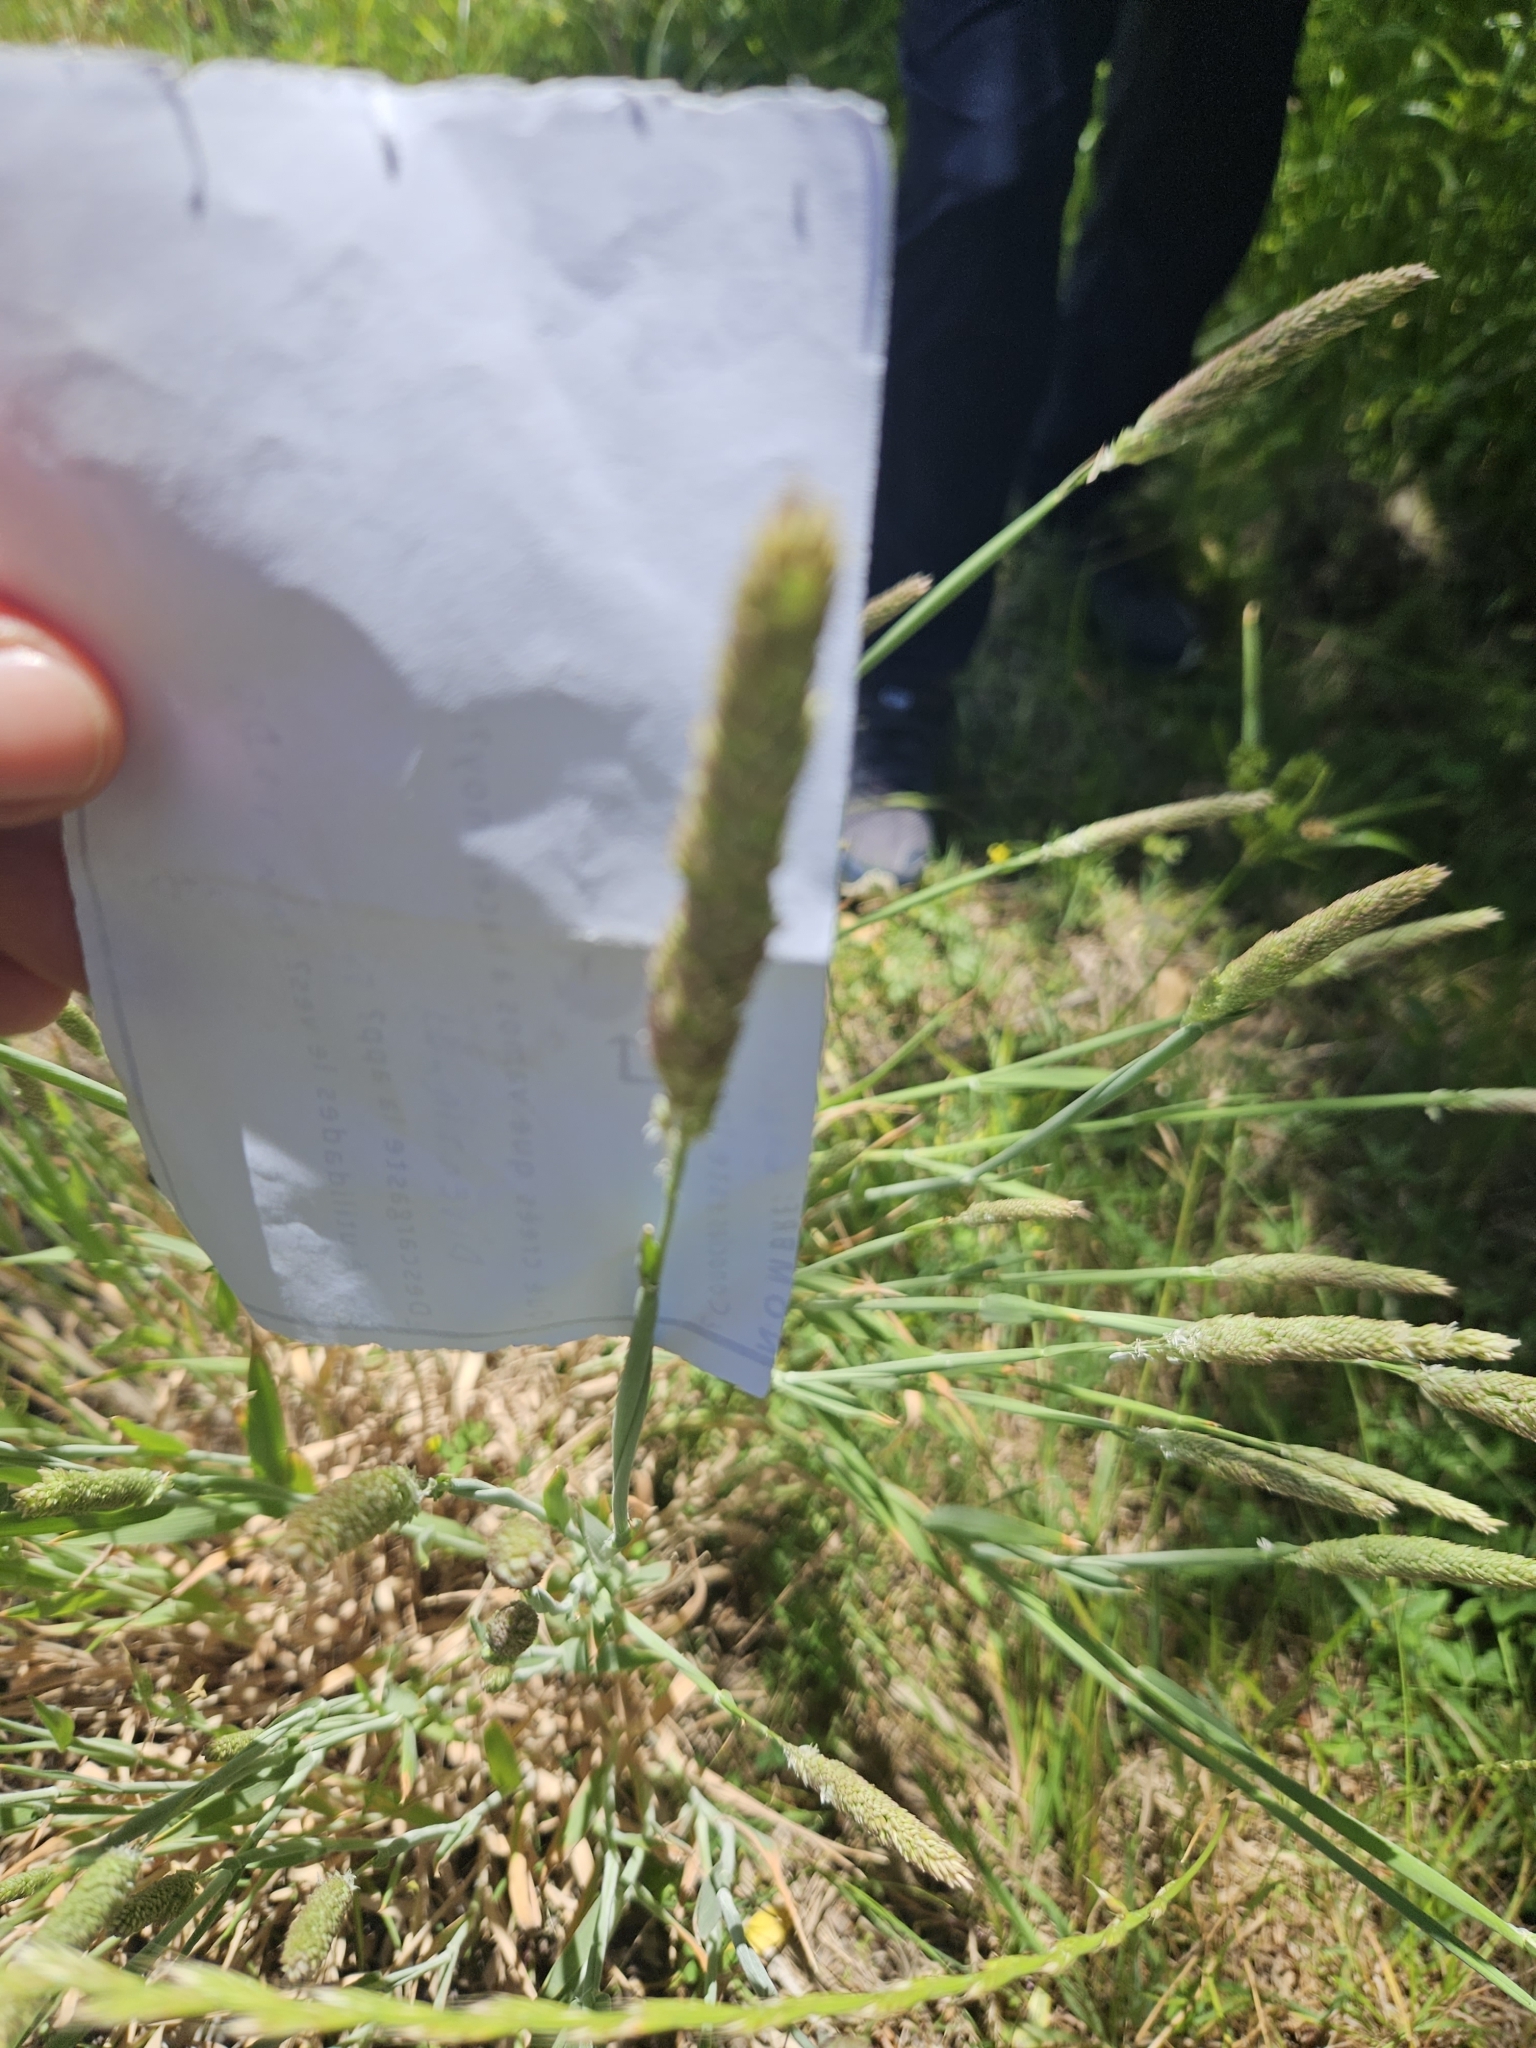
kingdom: Plantae
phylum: Tracheophyta
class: Liliopsida
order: Poales
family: Poaceae
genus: Holcus
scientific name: Holcus lanatus
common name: Yorkshire-fog
